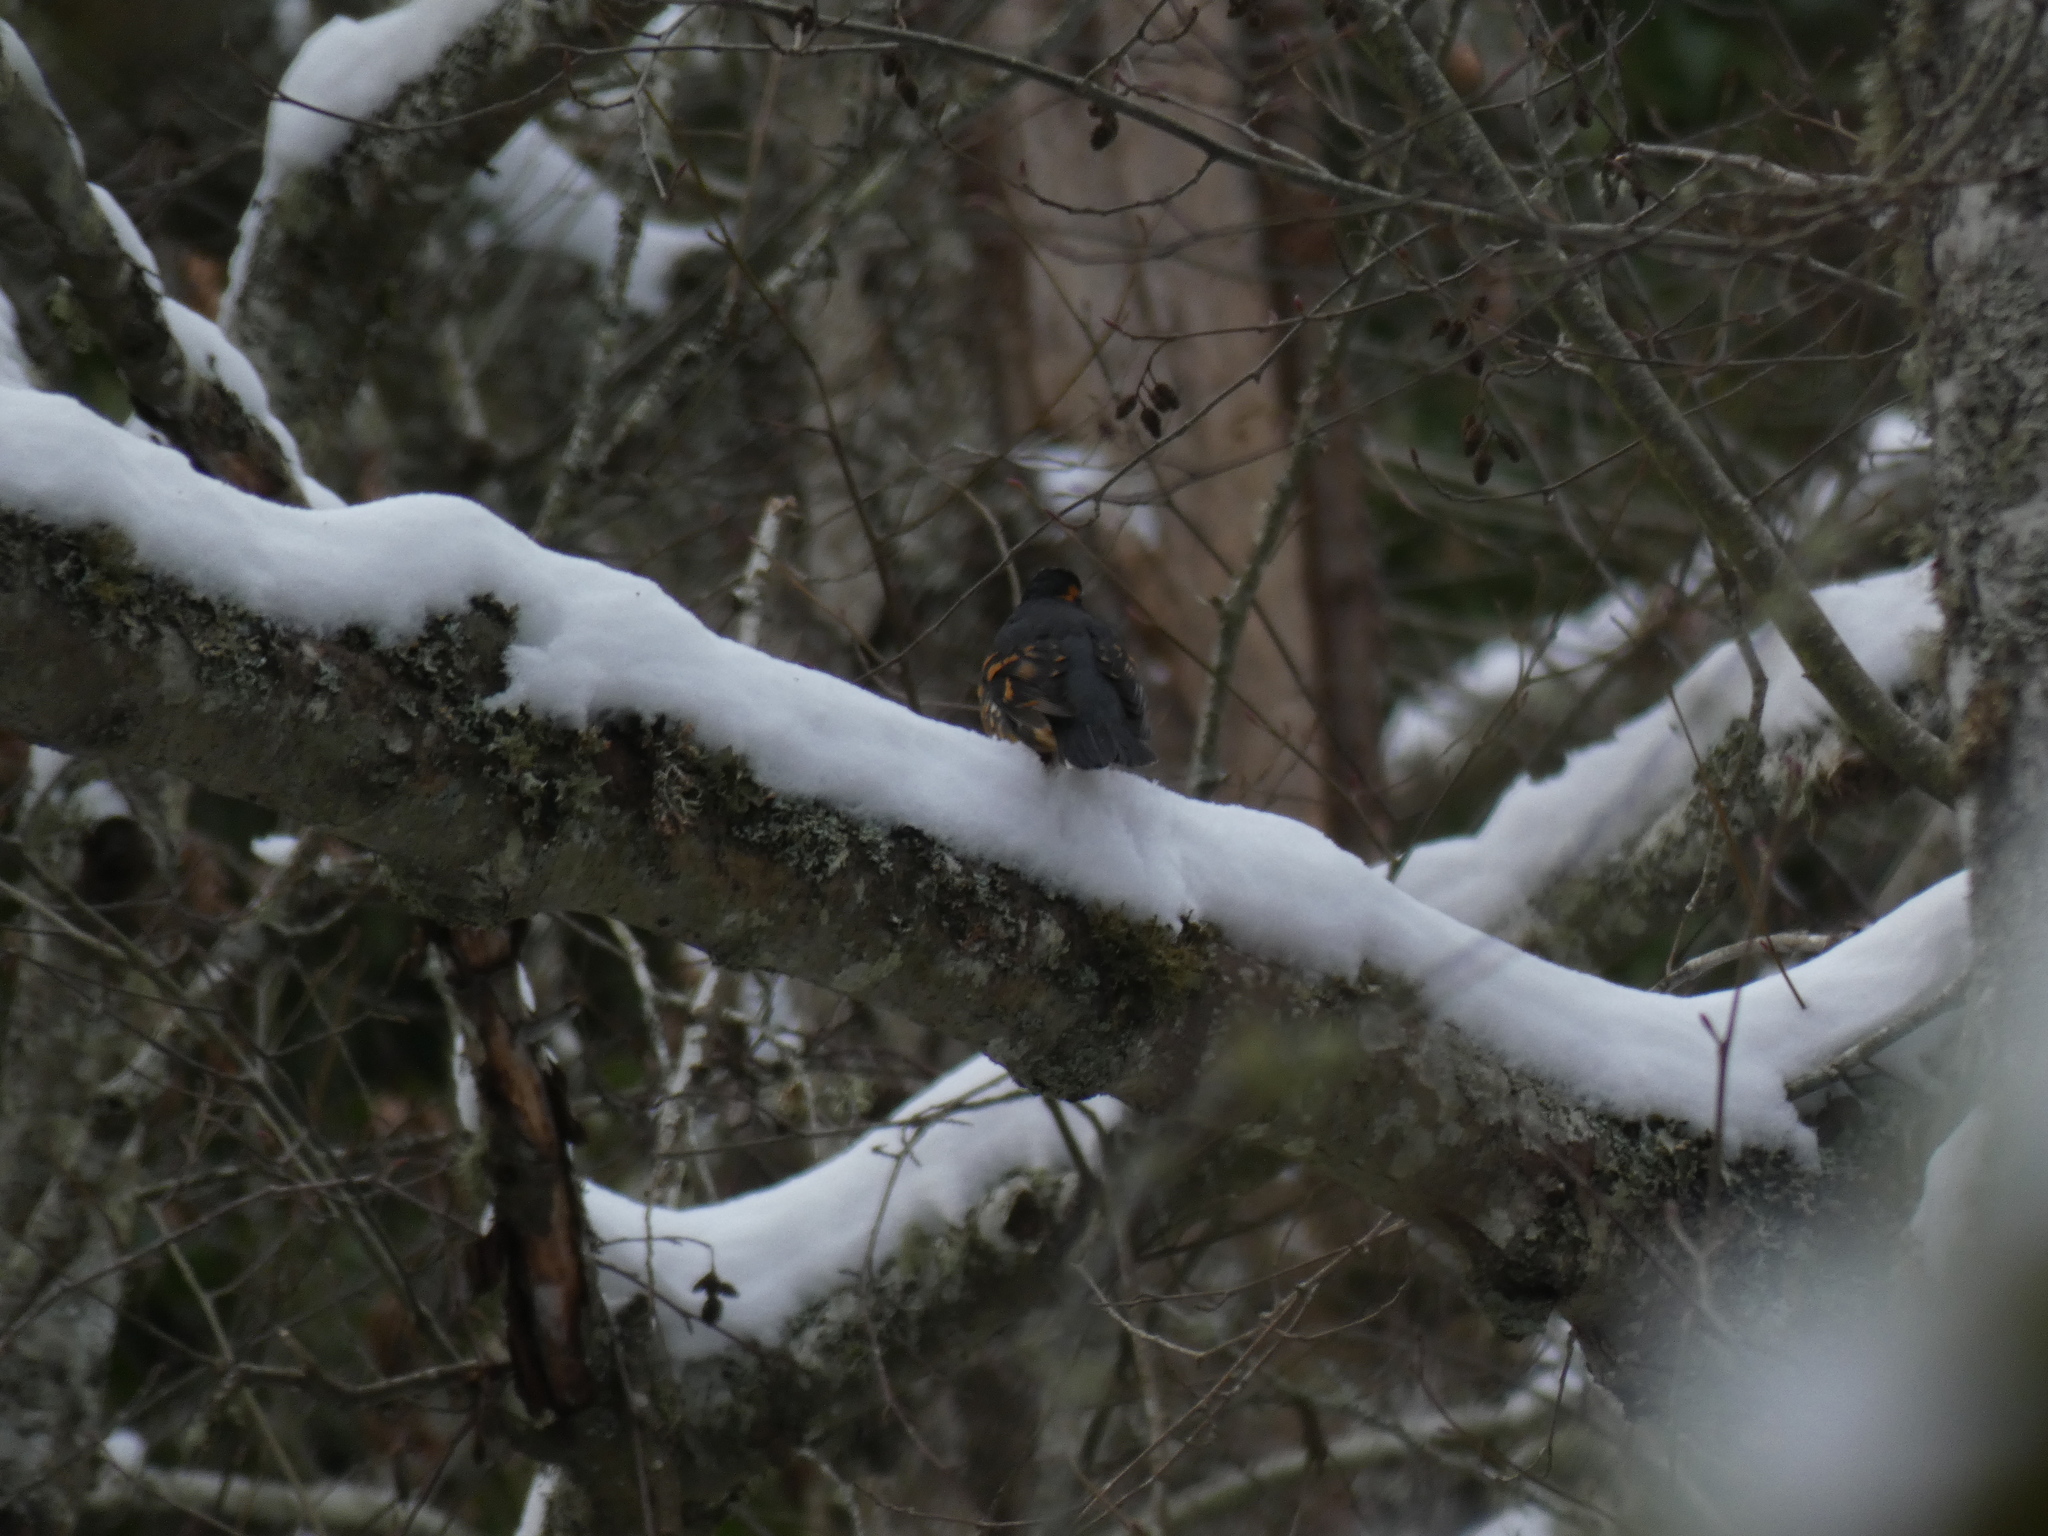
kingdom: Animalia
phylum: Chordata
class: Aves
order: Passeriformes
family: Turdidae
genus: Ixoreus
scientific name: Ixoreus naevius
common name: Varied thrush
